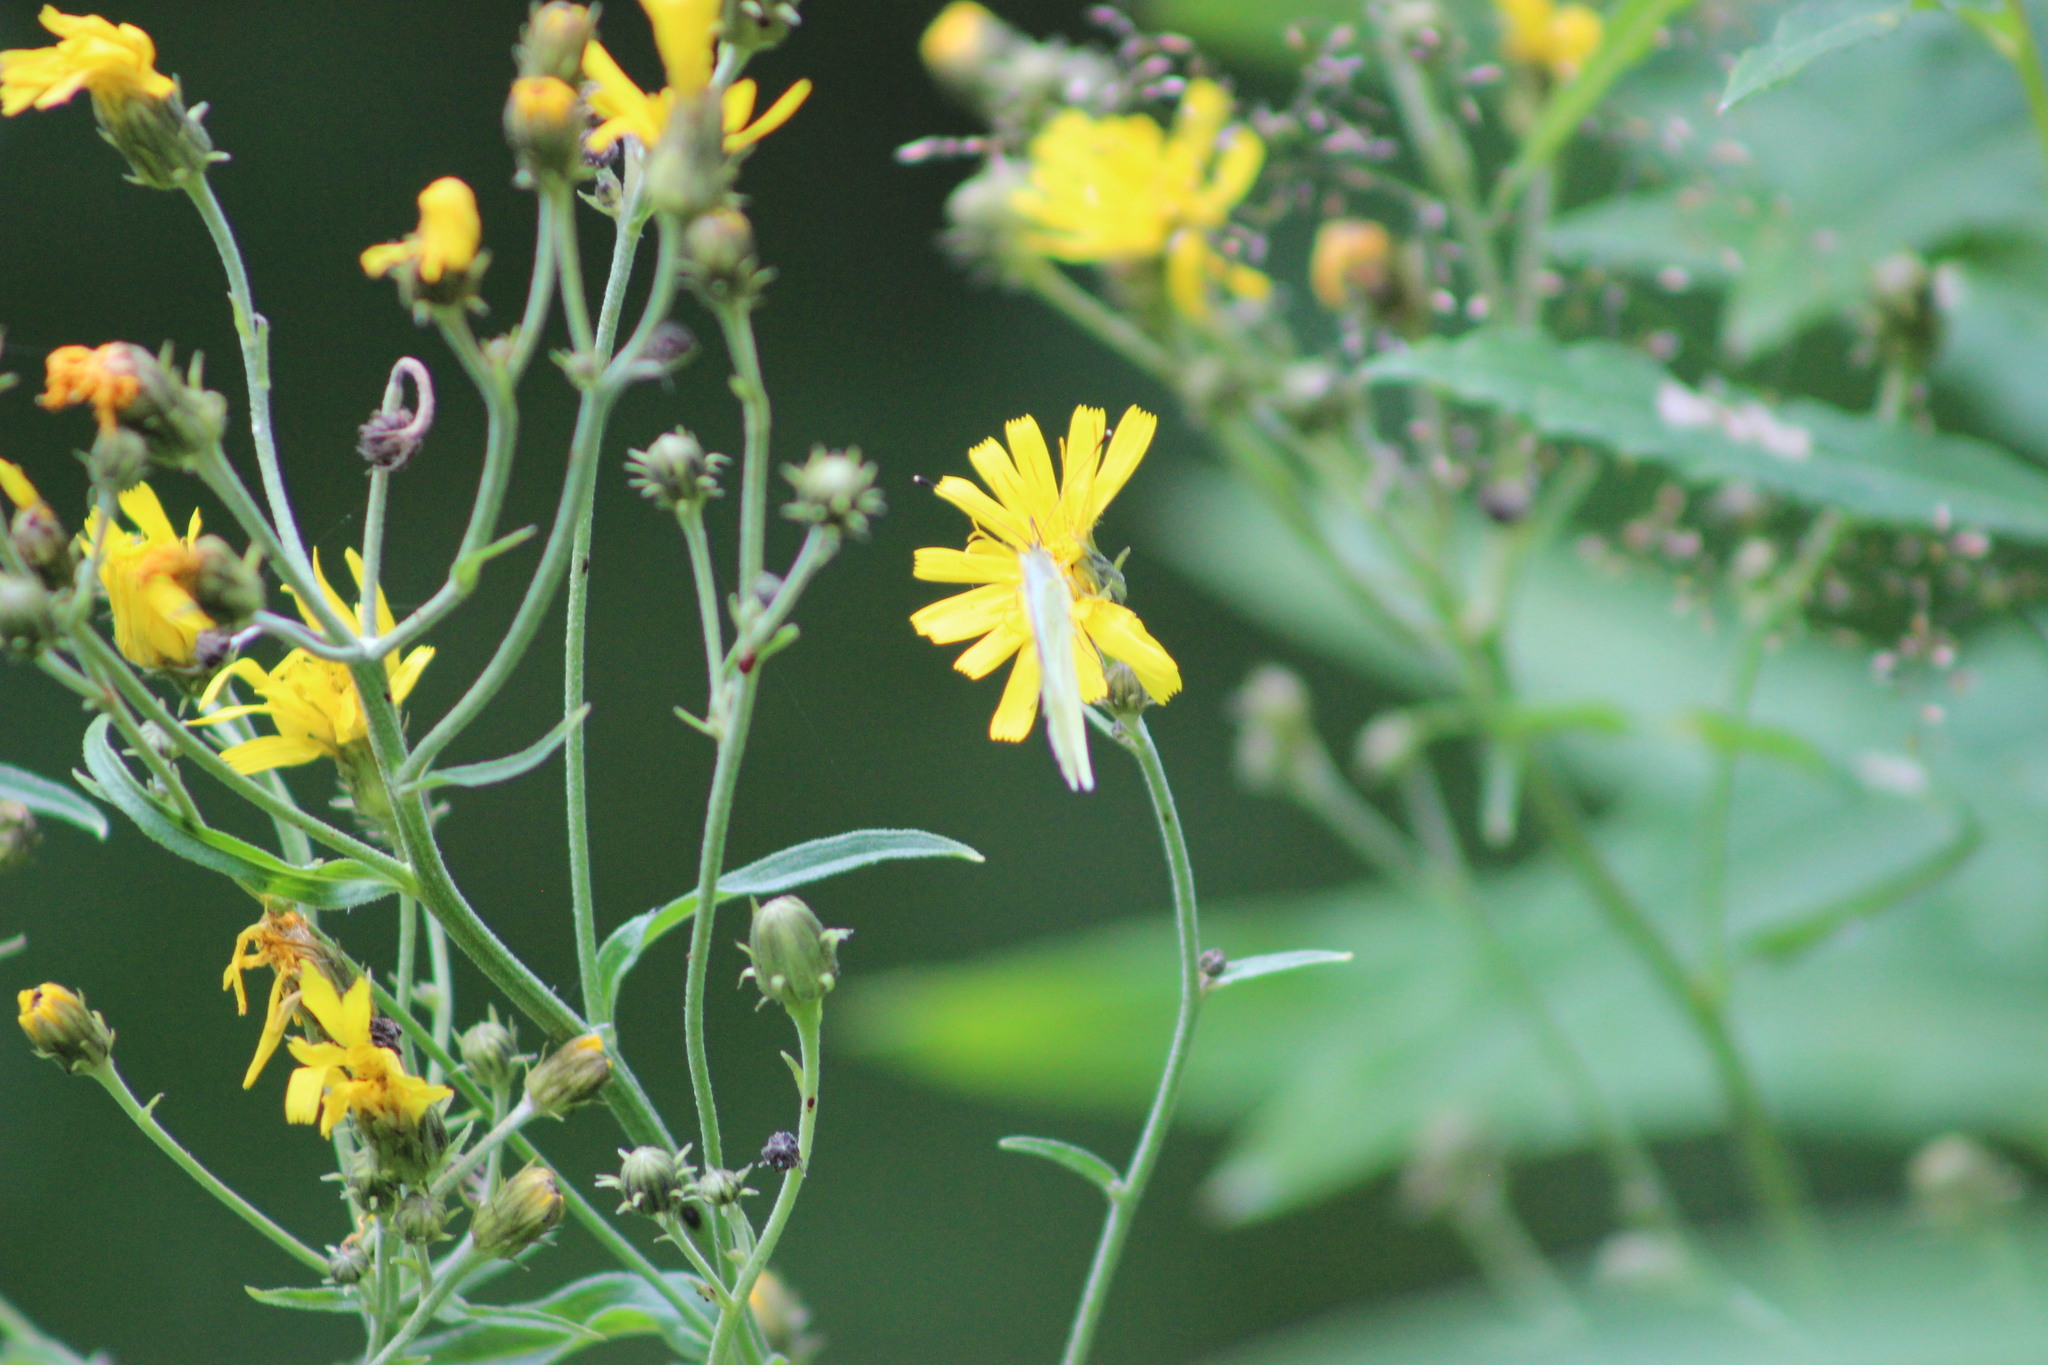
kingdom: Animalia
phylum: Arthropoda
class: Insecta
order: Lepidoptera
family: Pieridae
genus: Pieris
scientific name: Pieris napi
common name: Green-veined white
